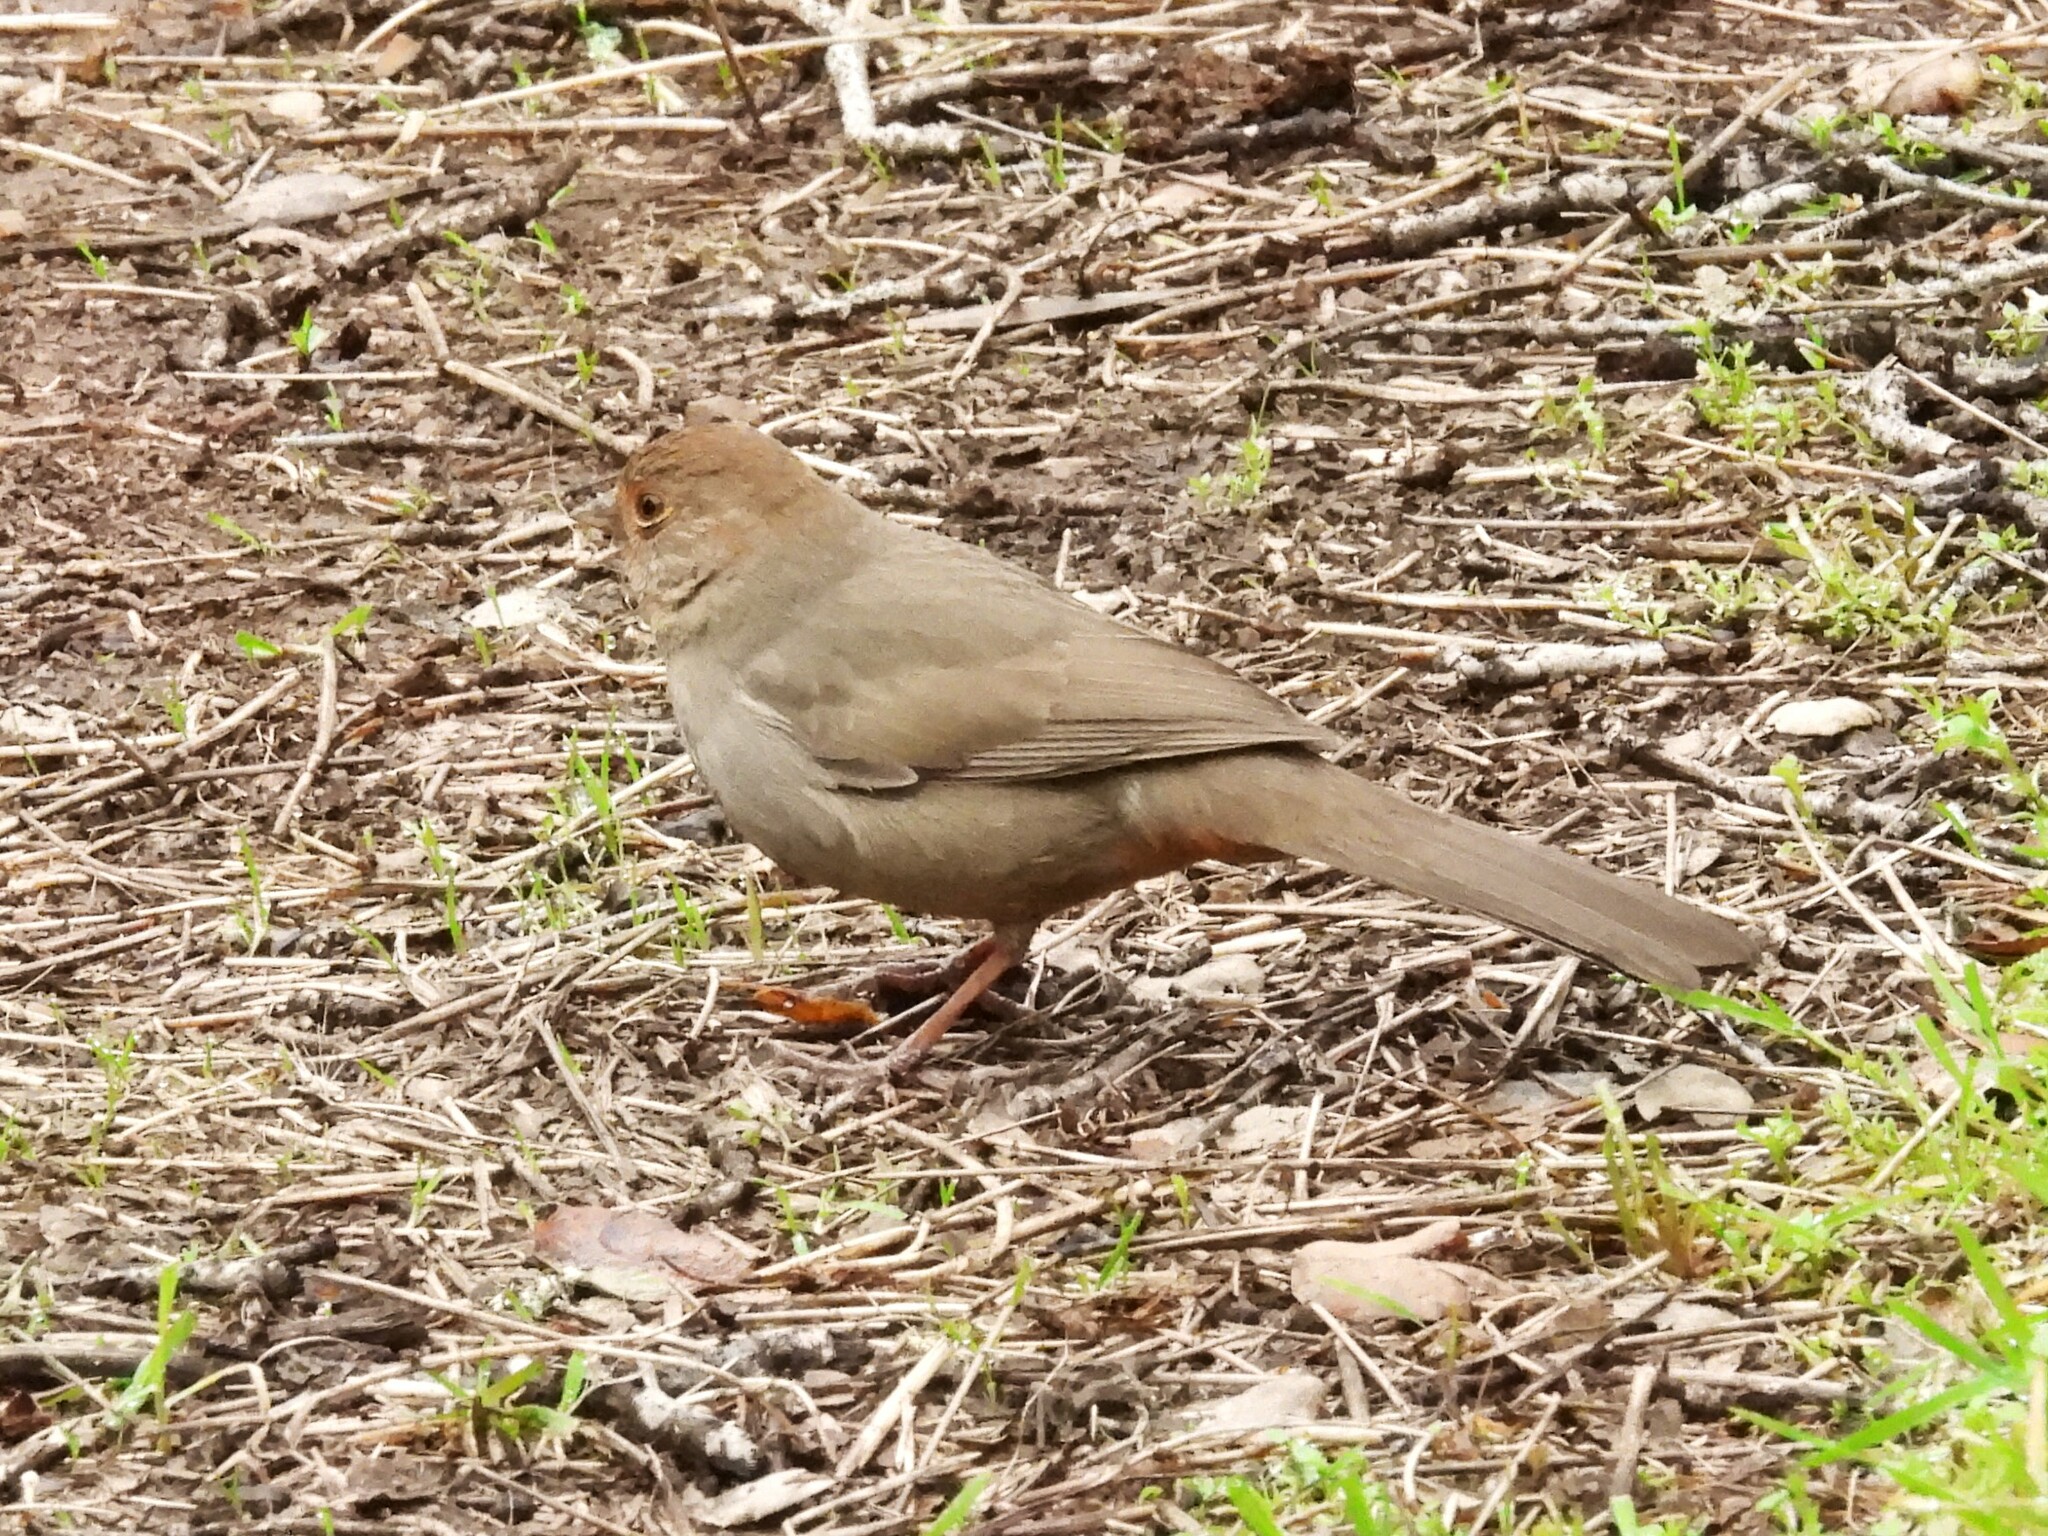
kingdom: Animalia
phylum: Chordata
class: Aves
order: Passeriformes
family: Passerellidae
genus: Melozone
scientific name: Melozone crissalis
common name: California towhee
